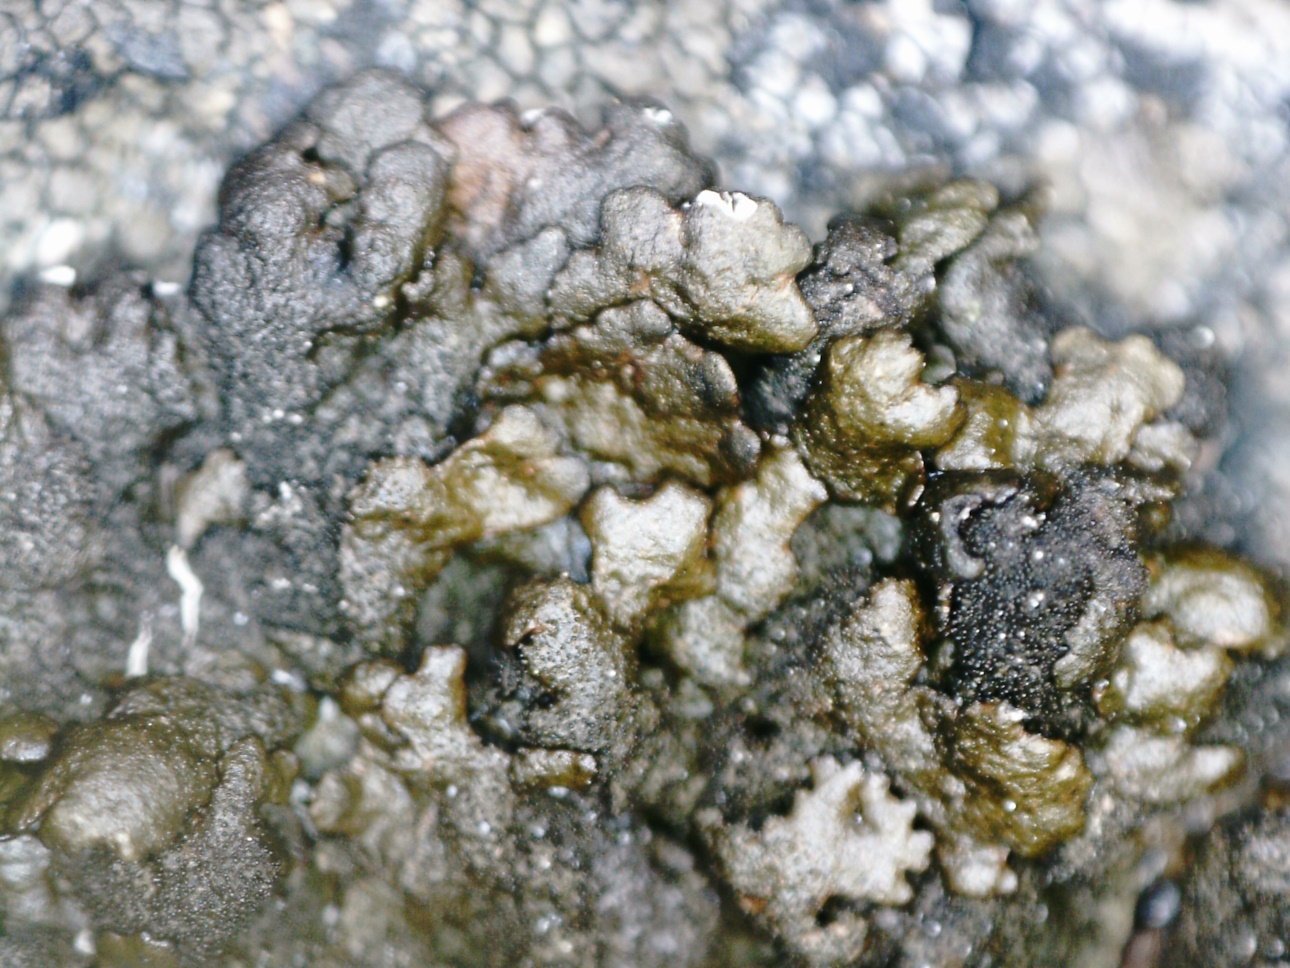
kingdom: Fungi
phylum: Ascomycota
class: Lecanoromycetes
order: Lecanorales
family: Parmeliaceae
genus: Melanelixia
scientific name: Melanelixia fuliginosa
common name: Shiny camouflage lichen
